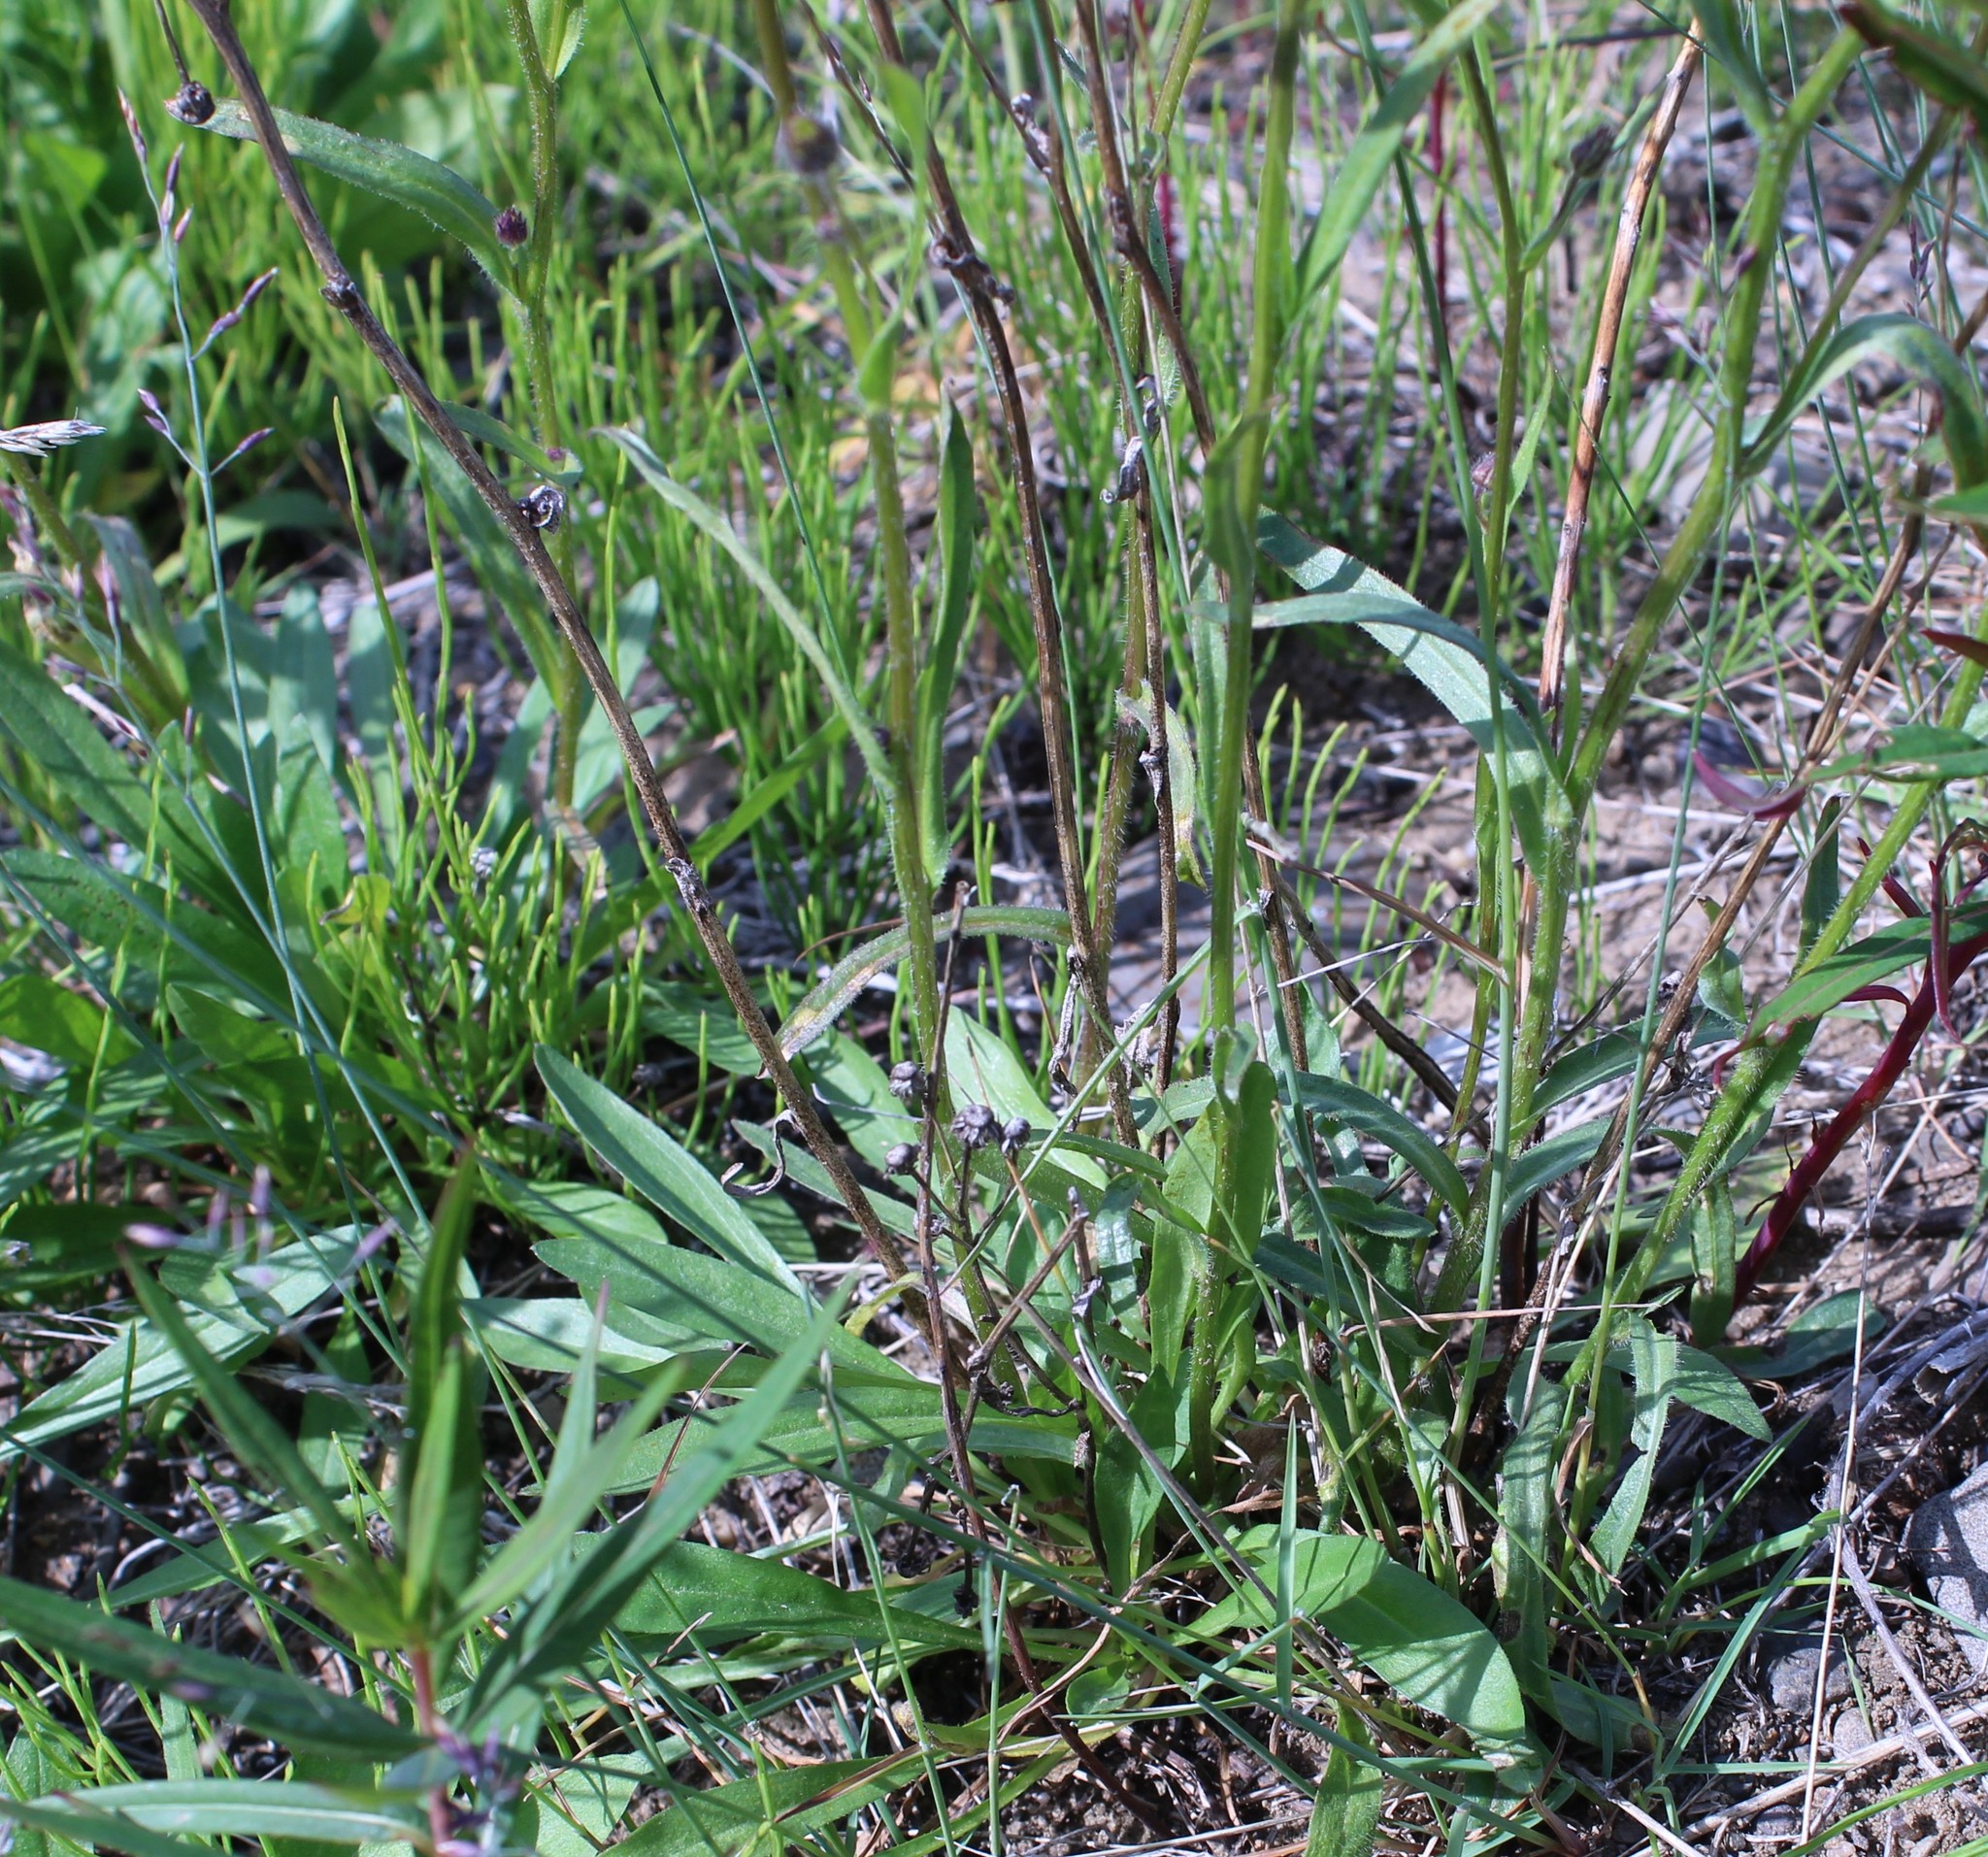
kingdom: Plantae
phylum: Tracheophyta
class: Magnoliopsida
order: Asterales
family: Asteraceae
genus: Erigeron
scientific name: Erigeron acris
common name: Blue fleabane
